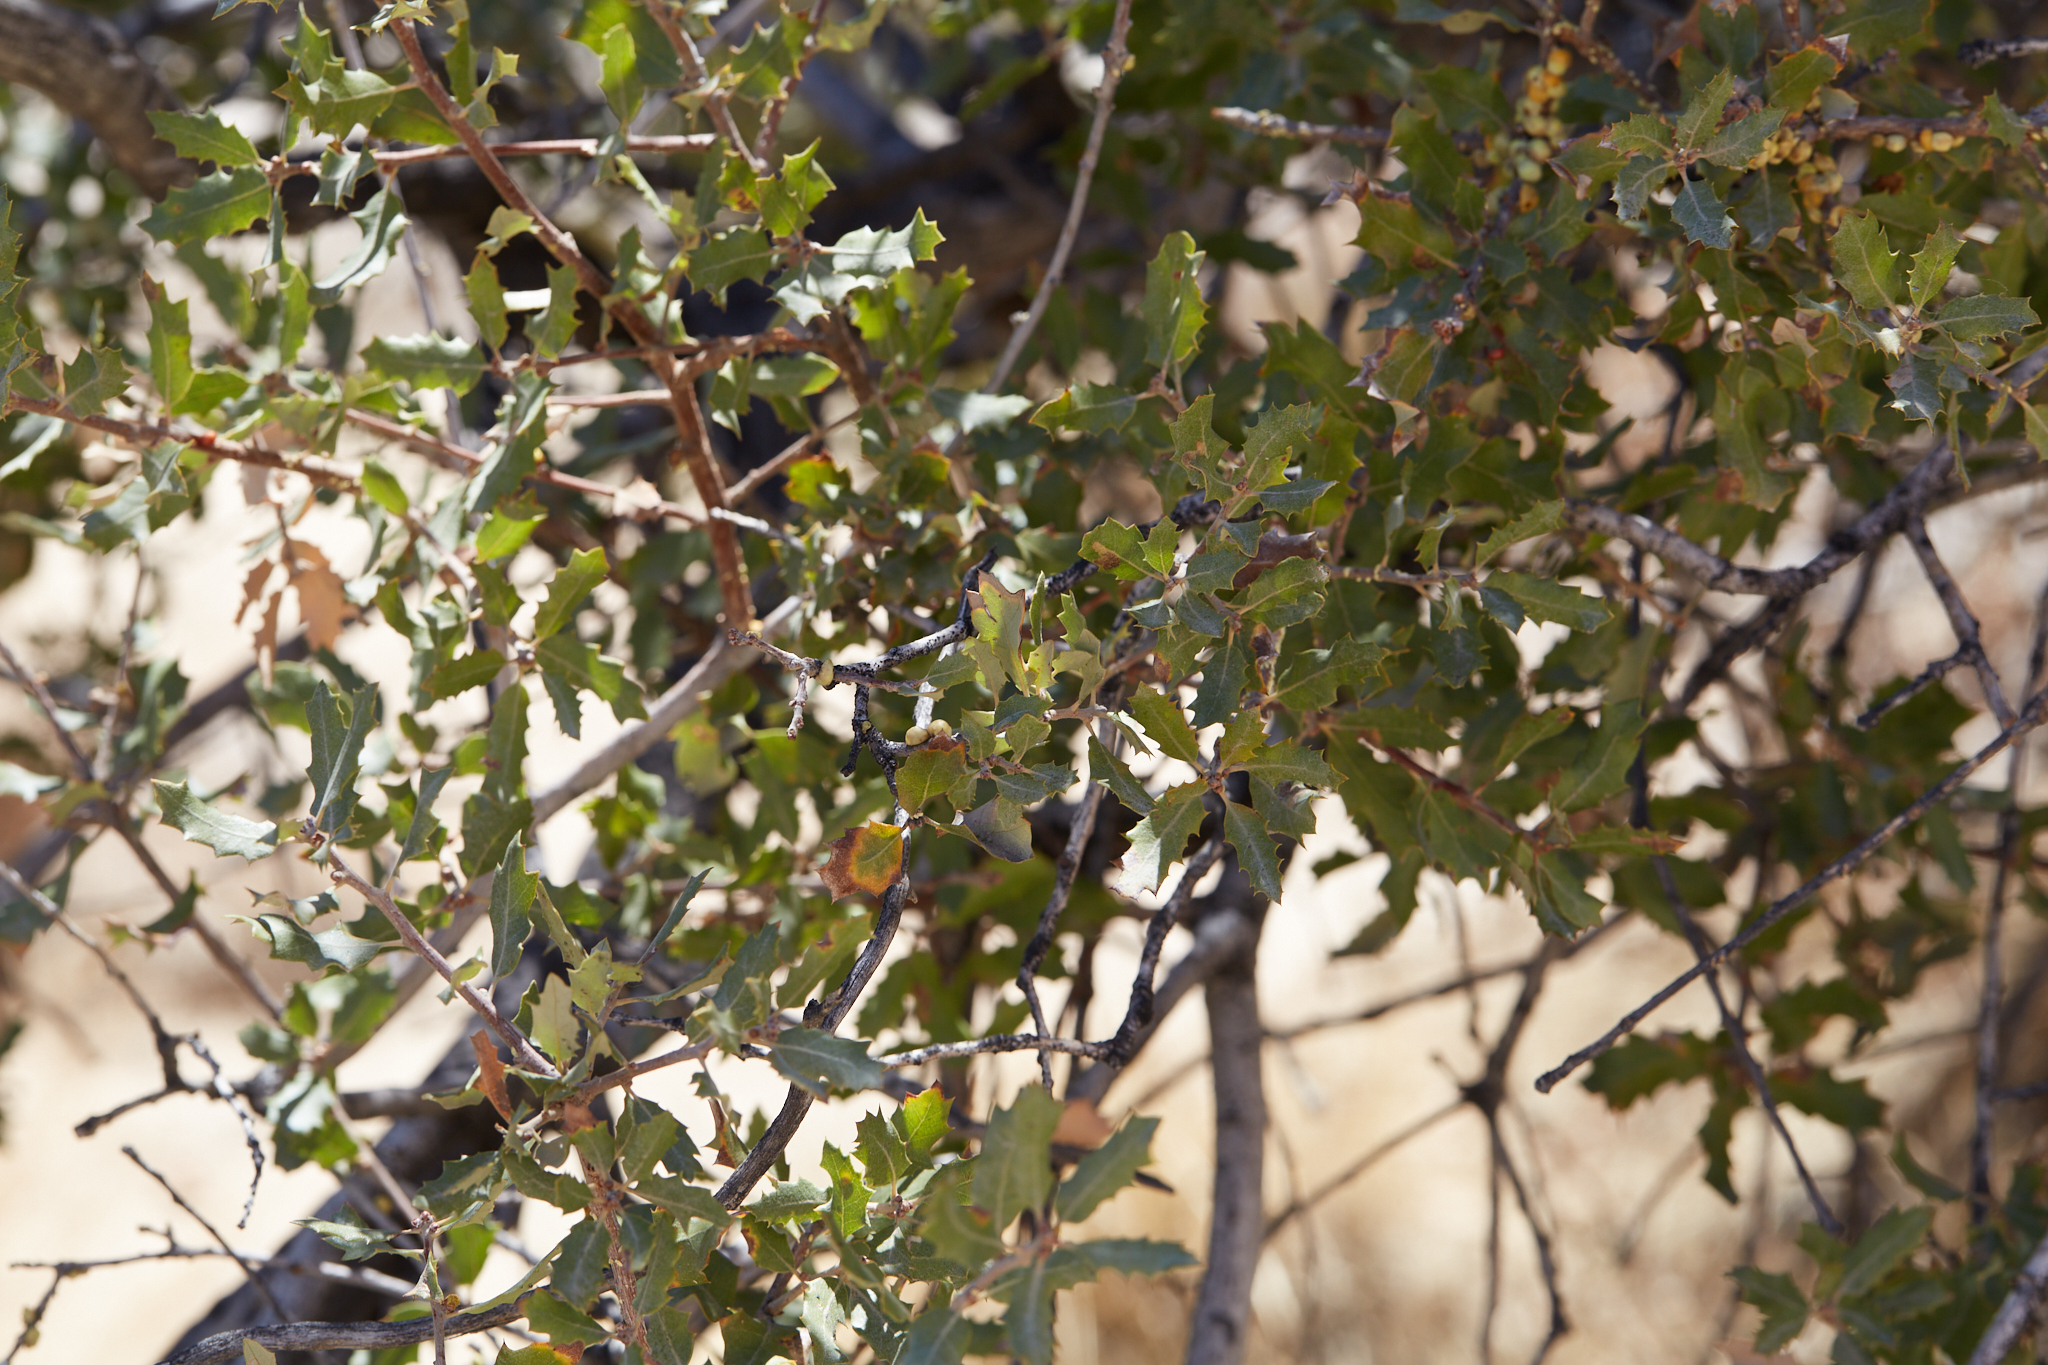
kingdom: Plantae
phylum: Tracheophyta
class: Magnoliopsida
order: Fagales
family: Fagaceae
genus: Quercus
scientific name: Quercus cornelius-mulleri
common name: Muller oak
